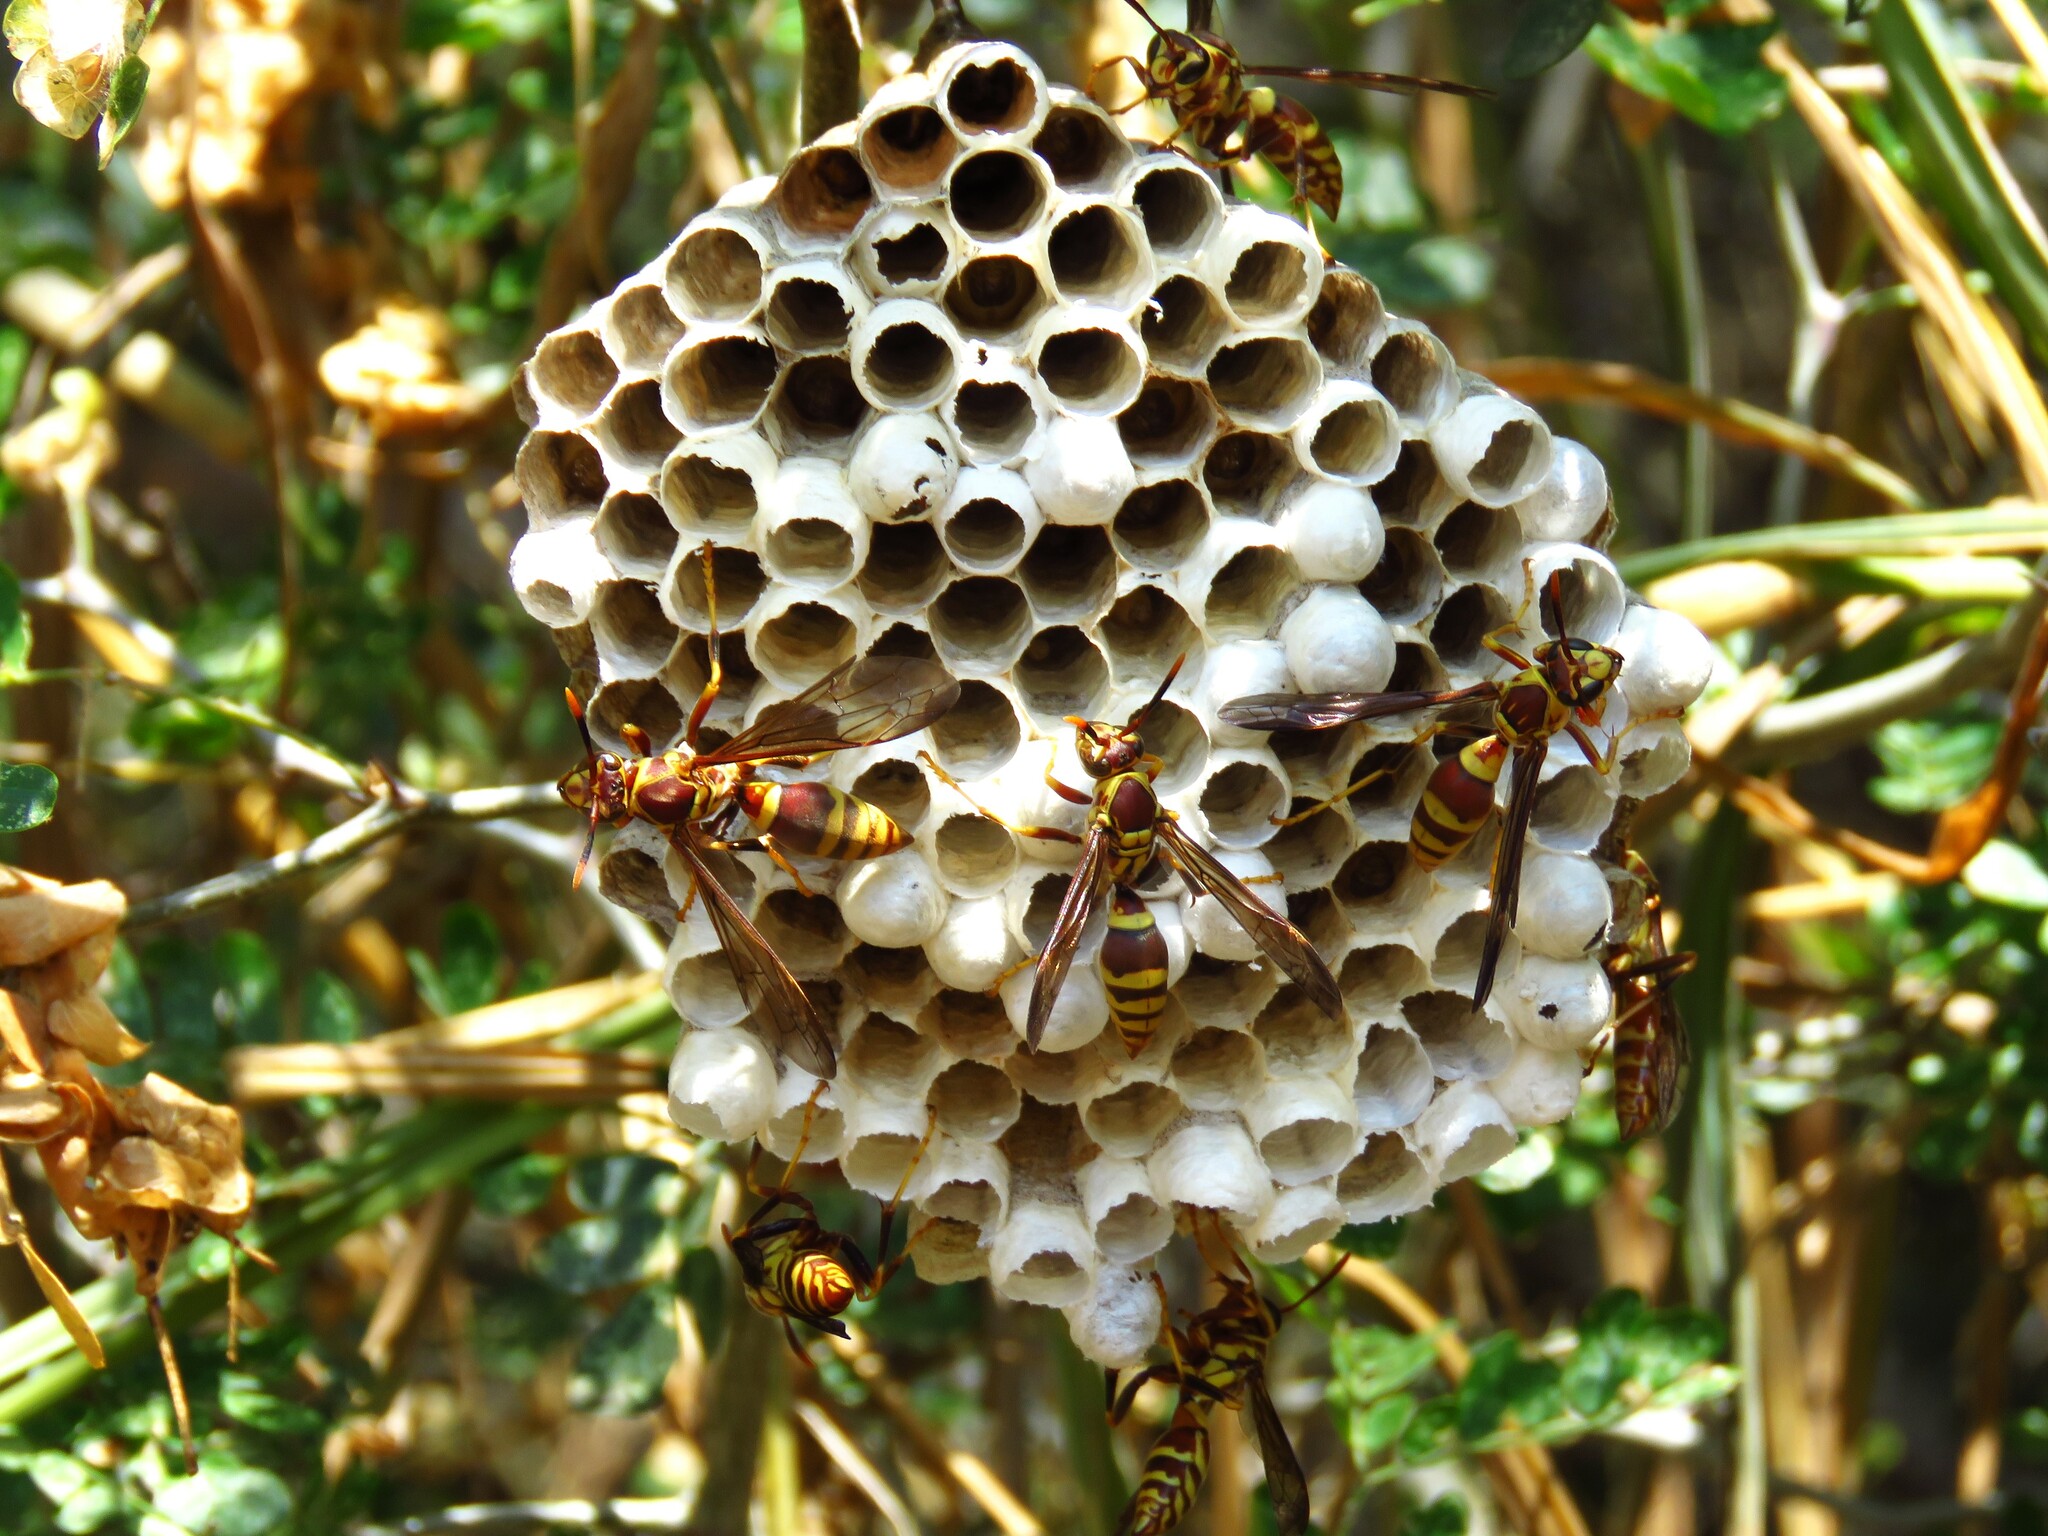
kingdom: Animalia
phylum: Arthropoda
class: Insecta
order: Hymenoptera
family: Eumenidae
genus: Polistes
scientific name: Polistes exclamans
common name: Paper wasp
